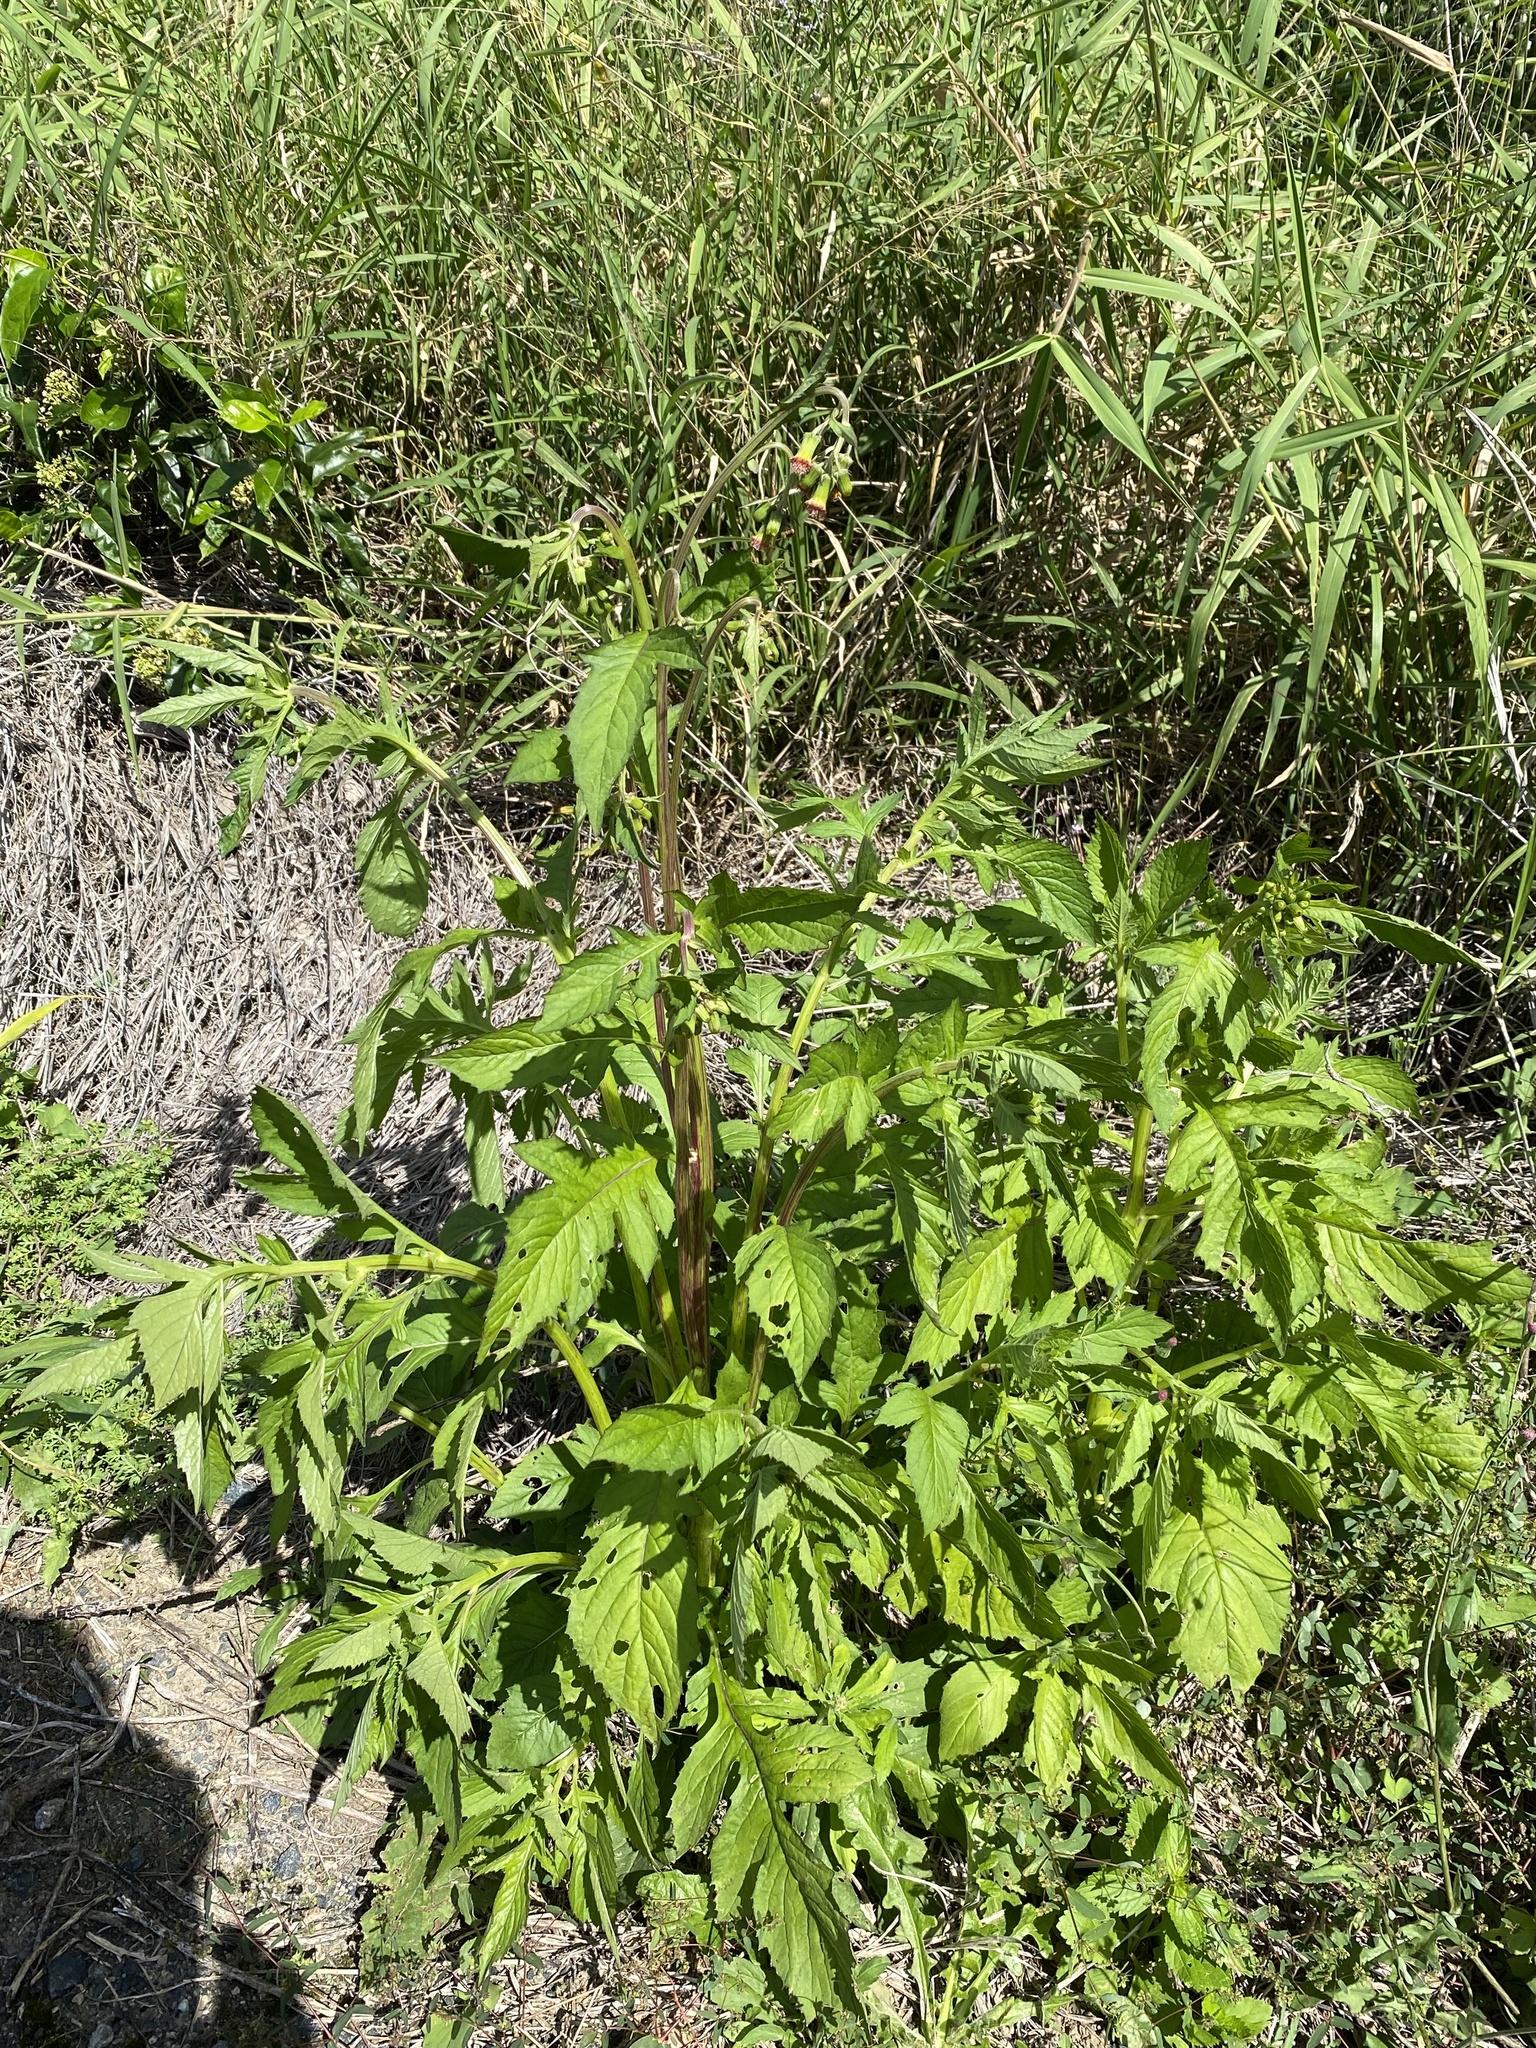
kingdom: Plantae
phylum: Tracheophyta
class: Magnoliopsida
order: Asterales
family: Asteraceae
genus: Crassocephalum
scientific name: Crassocephalum crepidioides
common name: Redflower ragleaf
